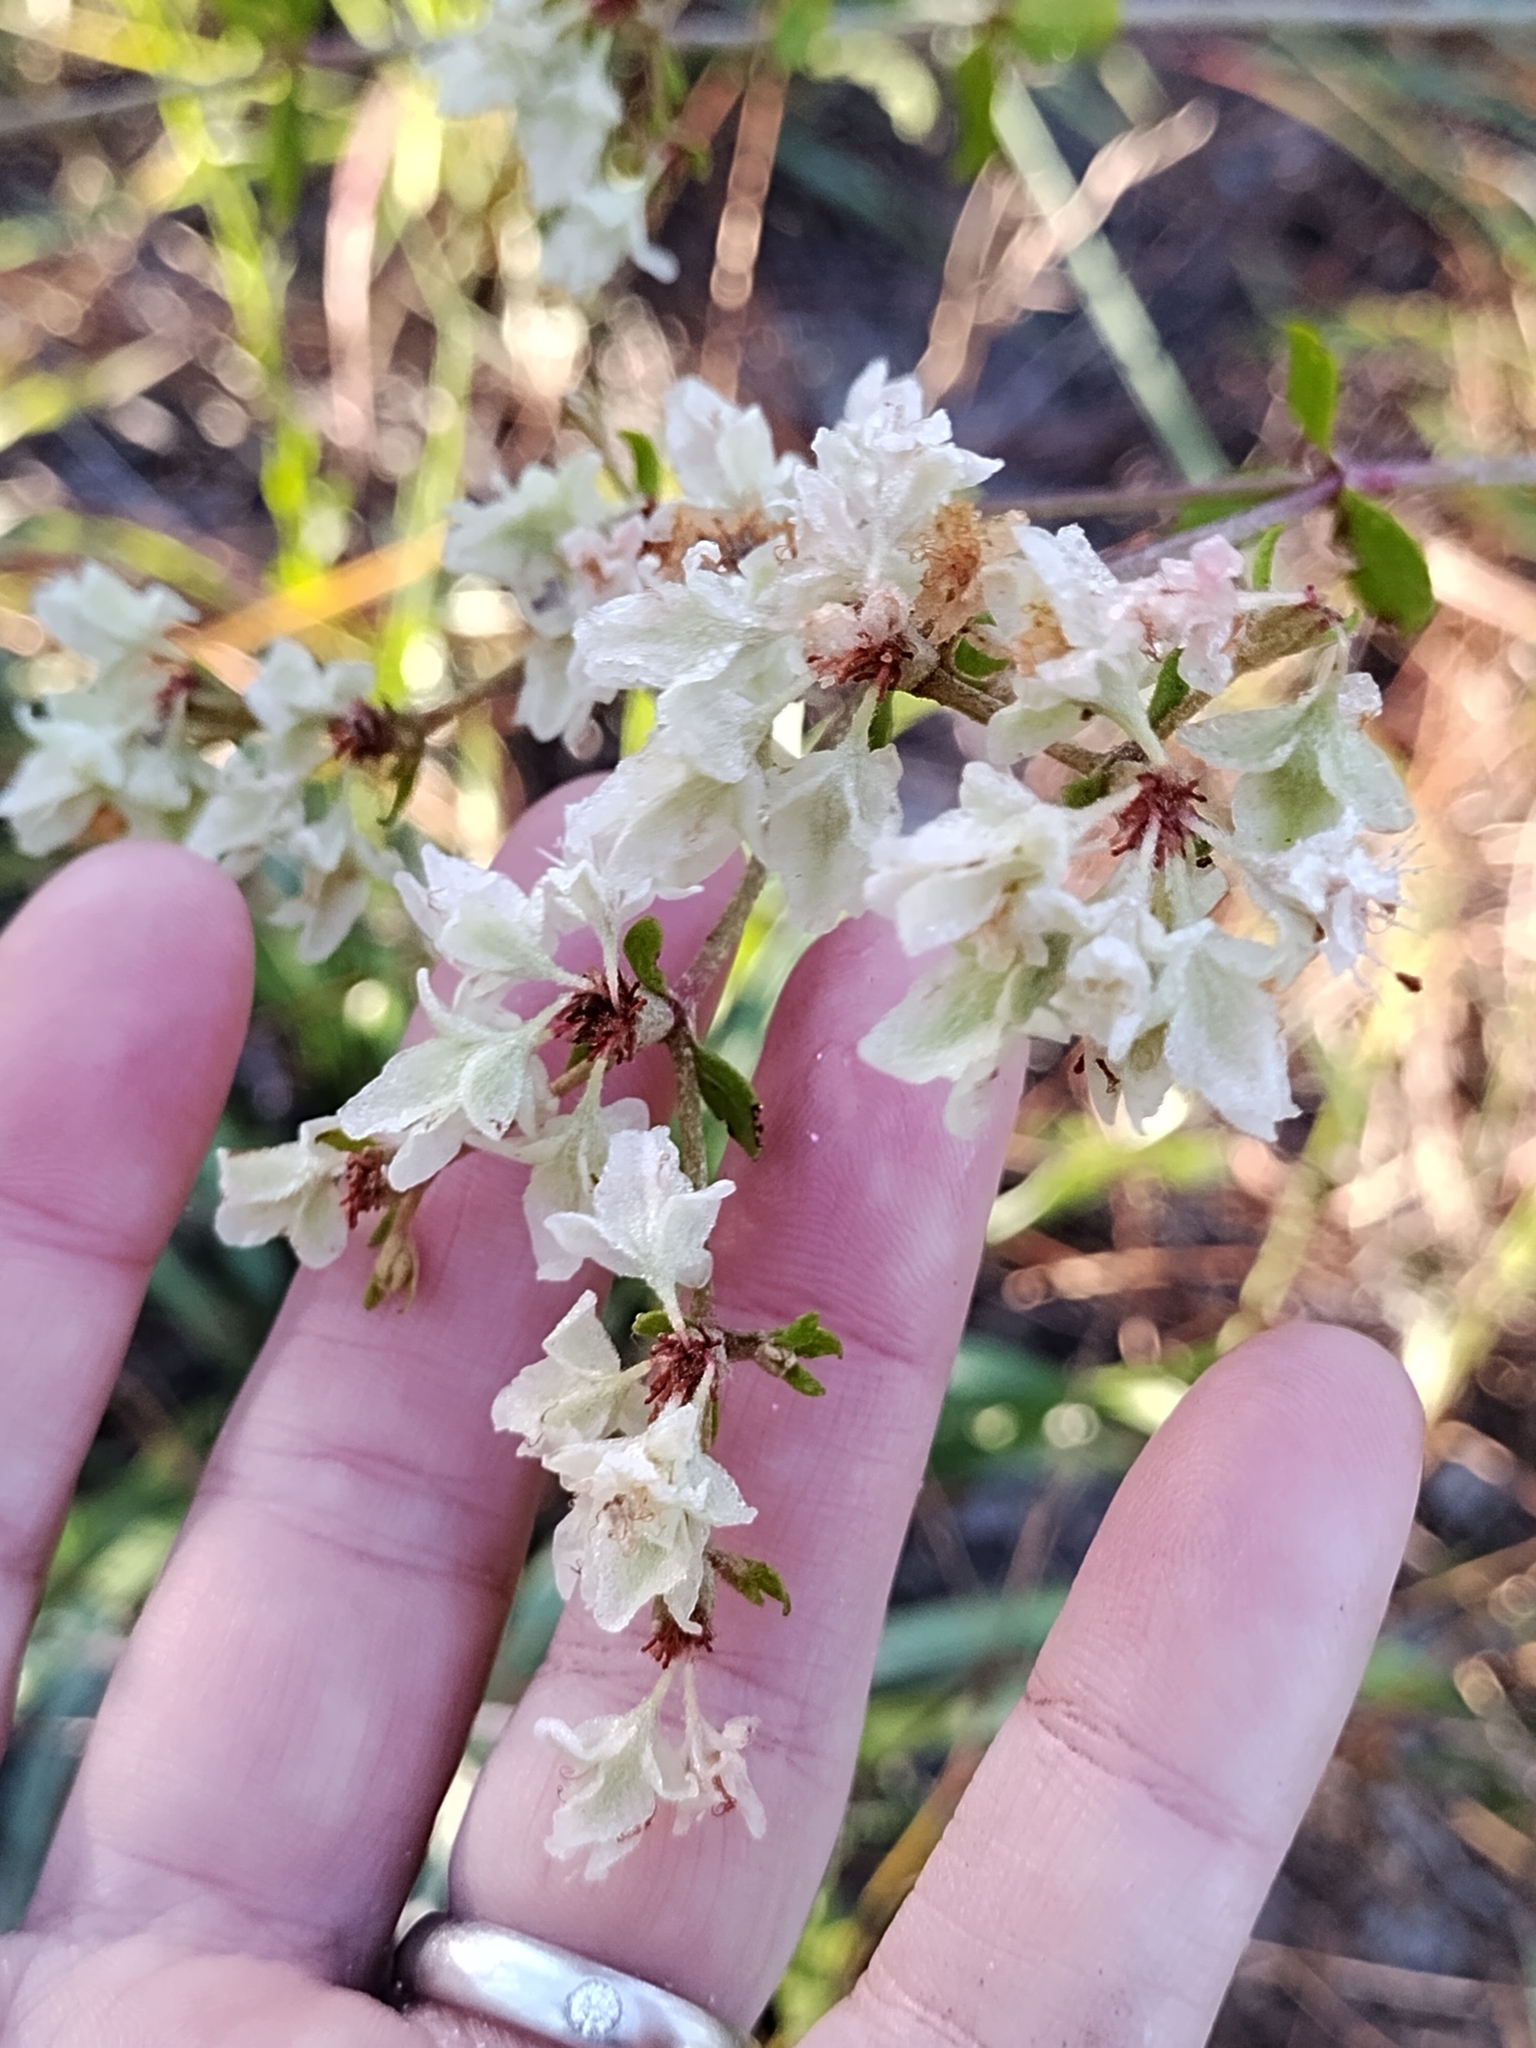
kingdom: Plantae
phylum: Tracheophyta
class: Magnoliopsida
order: Caryophyllales
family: Polygonaceae
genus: Eriogonum
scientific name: Eriogonum tomentosum
